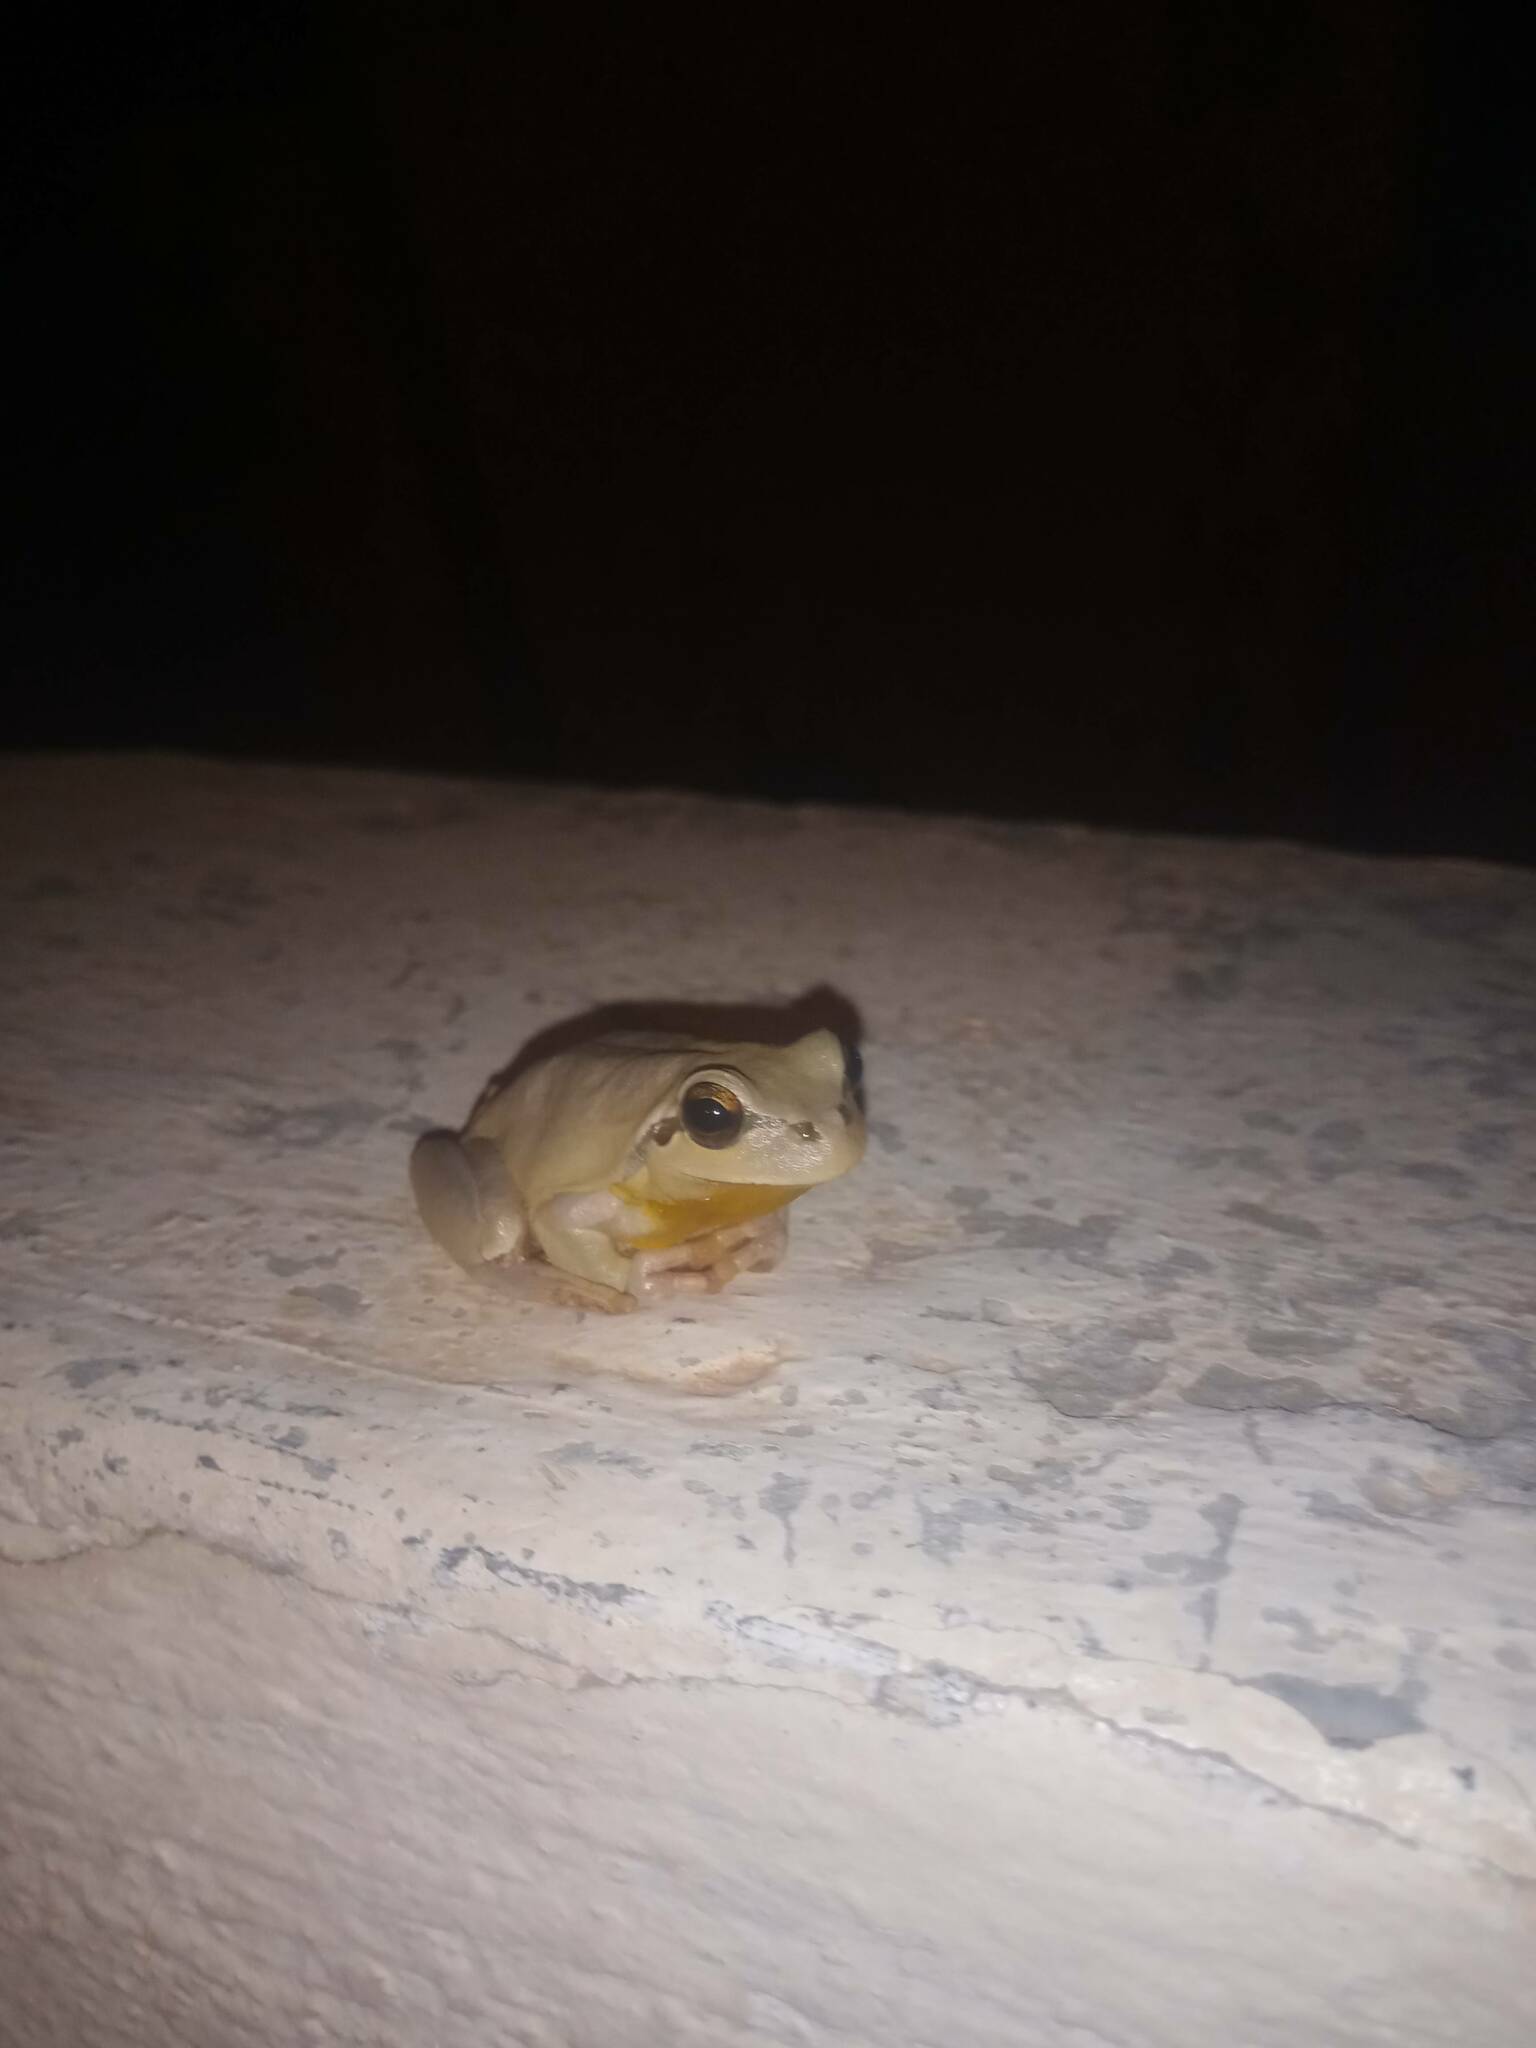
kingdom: Animalia
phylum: Chordata
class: Amphibia
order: Anura
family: Hylidae
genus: Hyla
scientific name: Hyla meridionalis
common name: Stripeless tree frog
